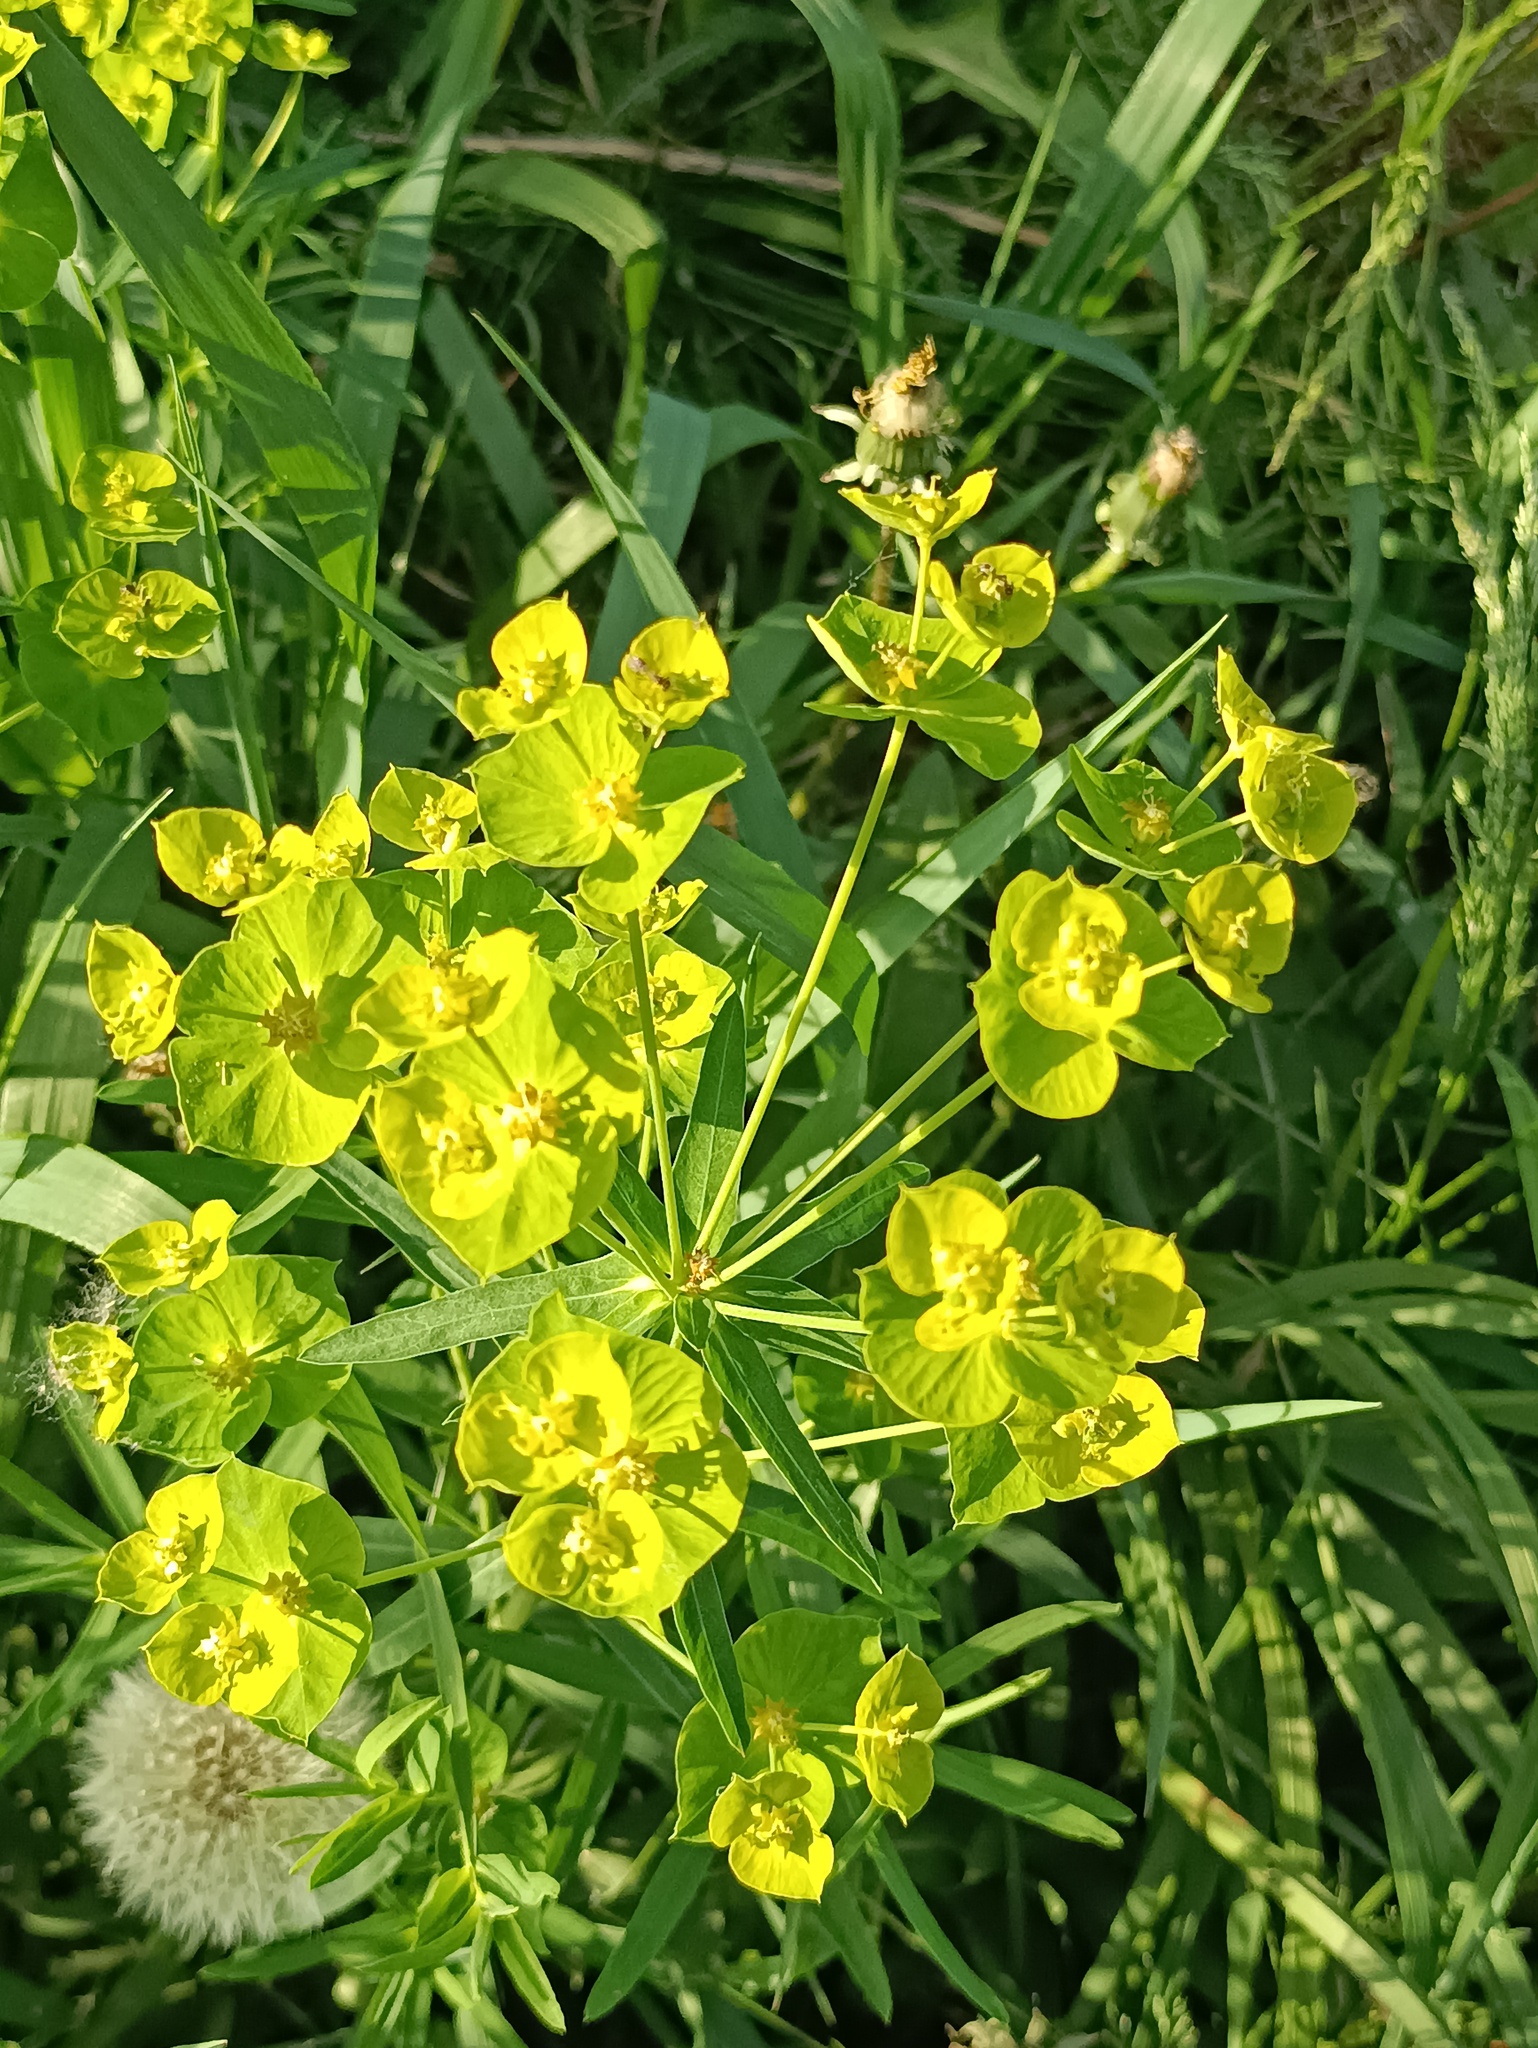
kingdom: Plantae
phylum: Tracheophyta
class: Magnoliopsida
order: Malpighiales
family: Euphorbiaceae
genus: Euphorbia
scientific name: Euphorbia virgata
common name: Leafy spurge
